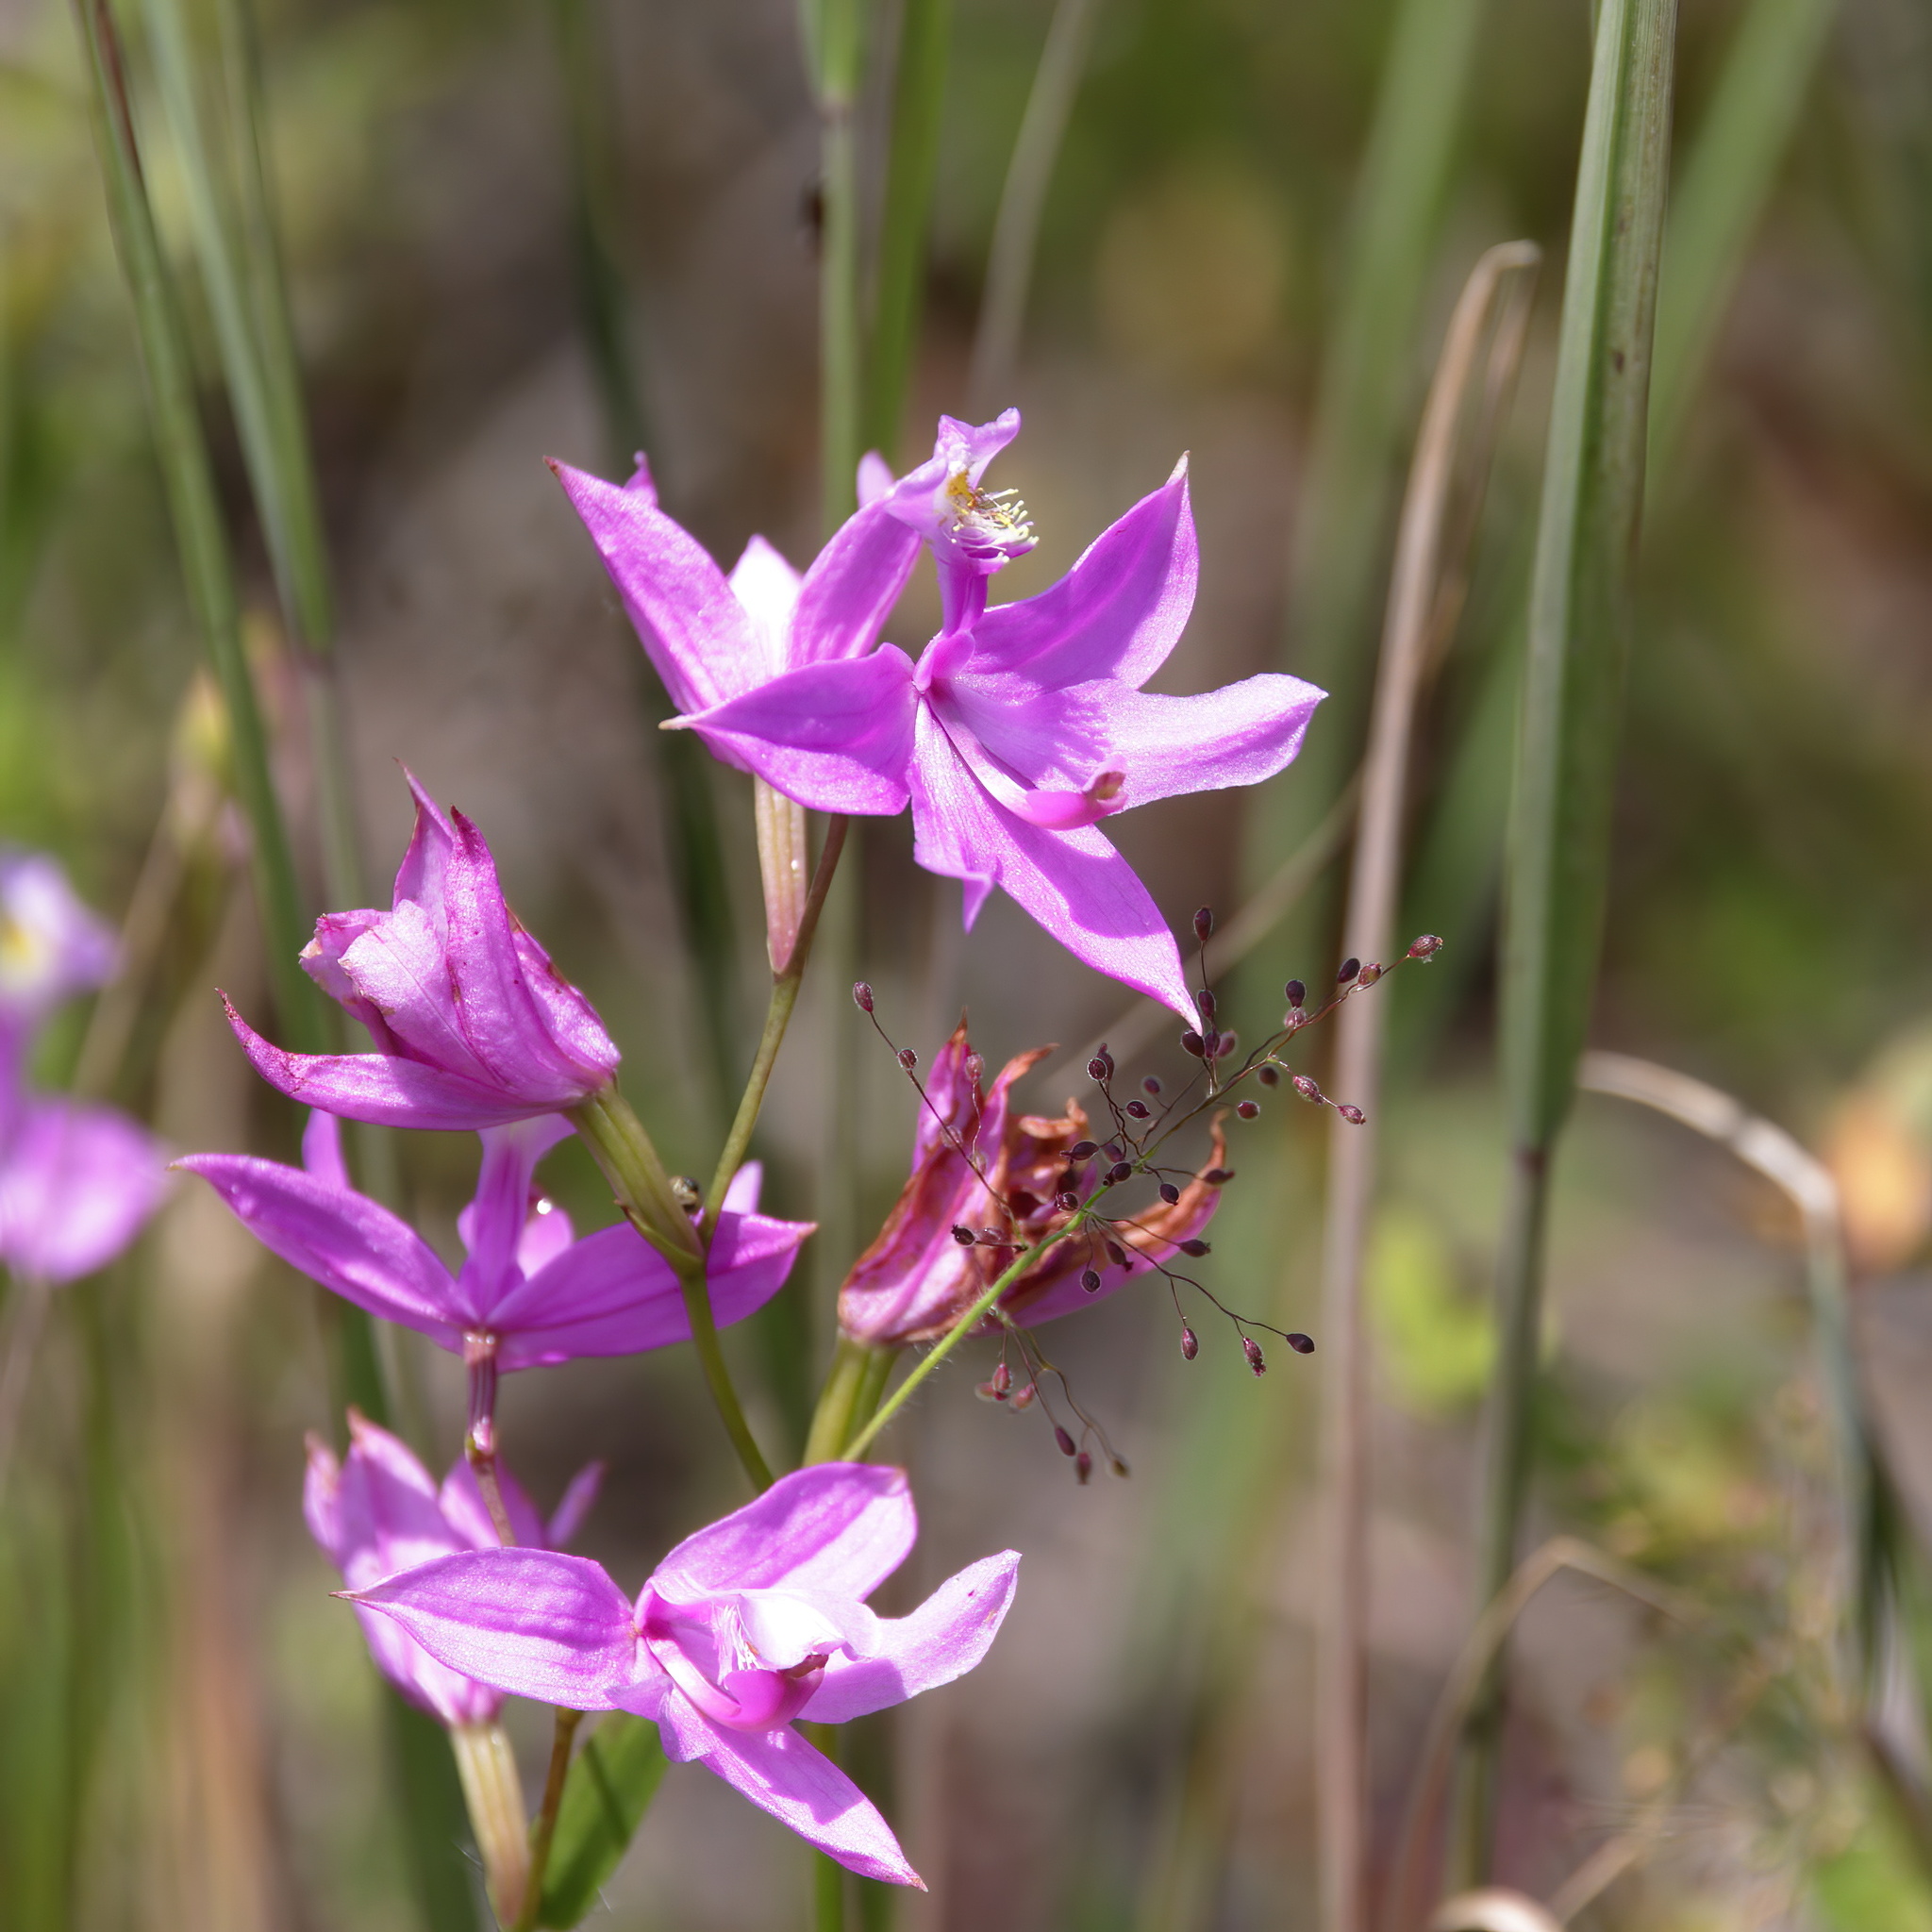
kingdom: Plantae
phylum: Tracheophyta
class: Liliopsida
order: Asparagales
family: Orchidaceae
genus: Calopogon
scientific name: Calopogon tuberosus
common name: Grass-pink
